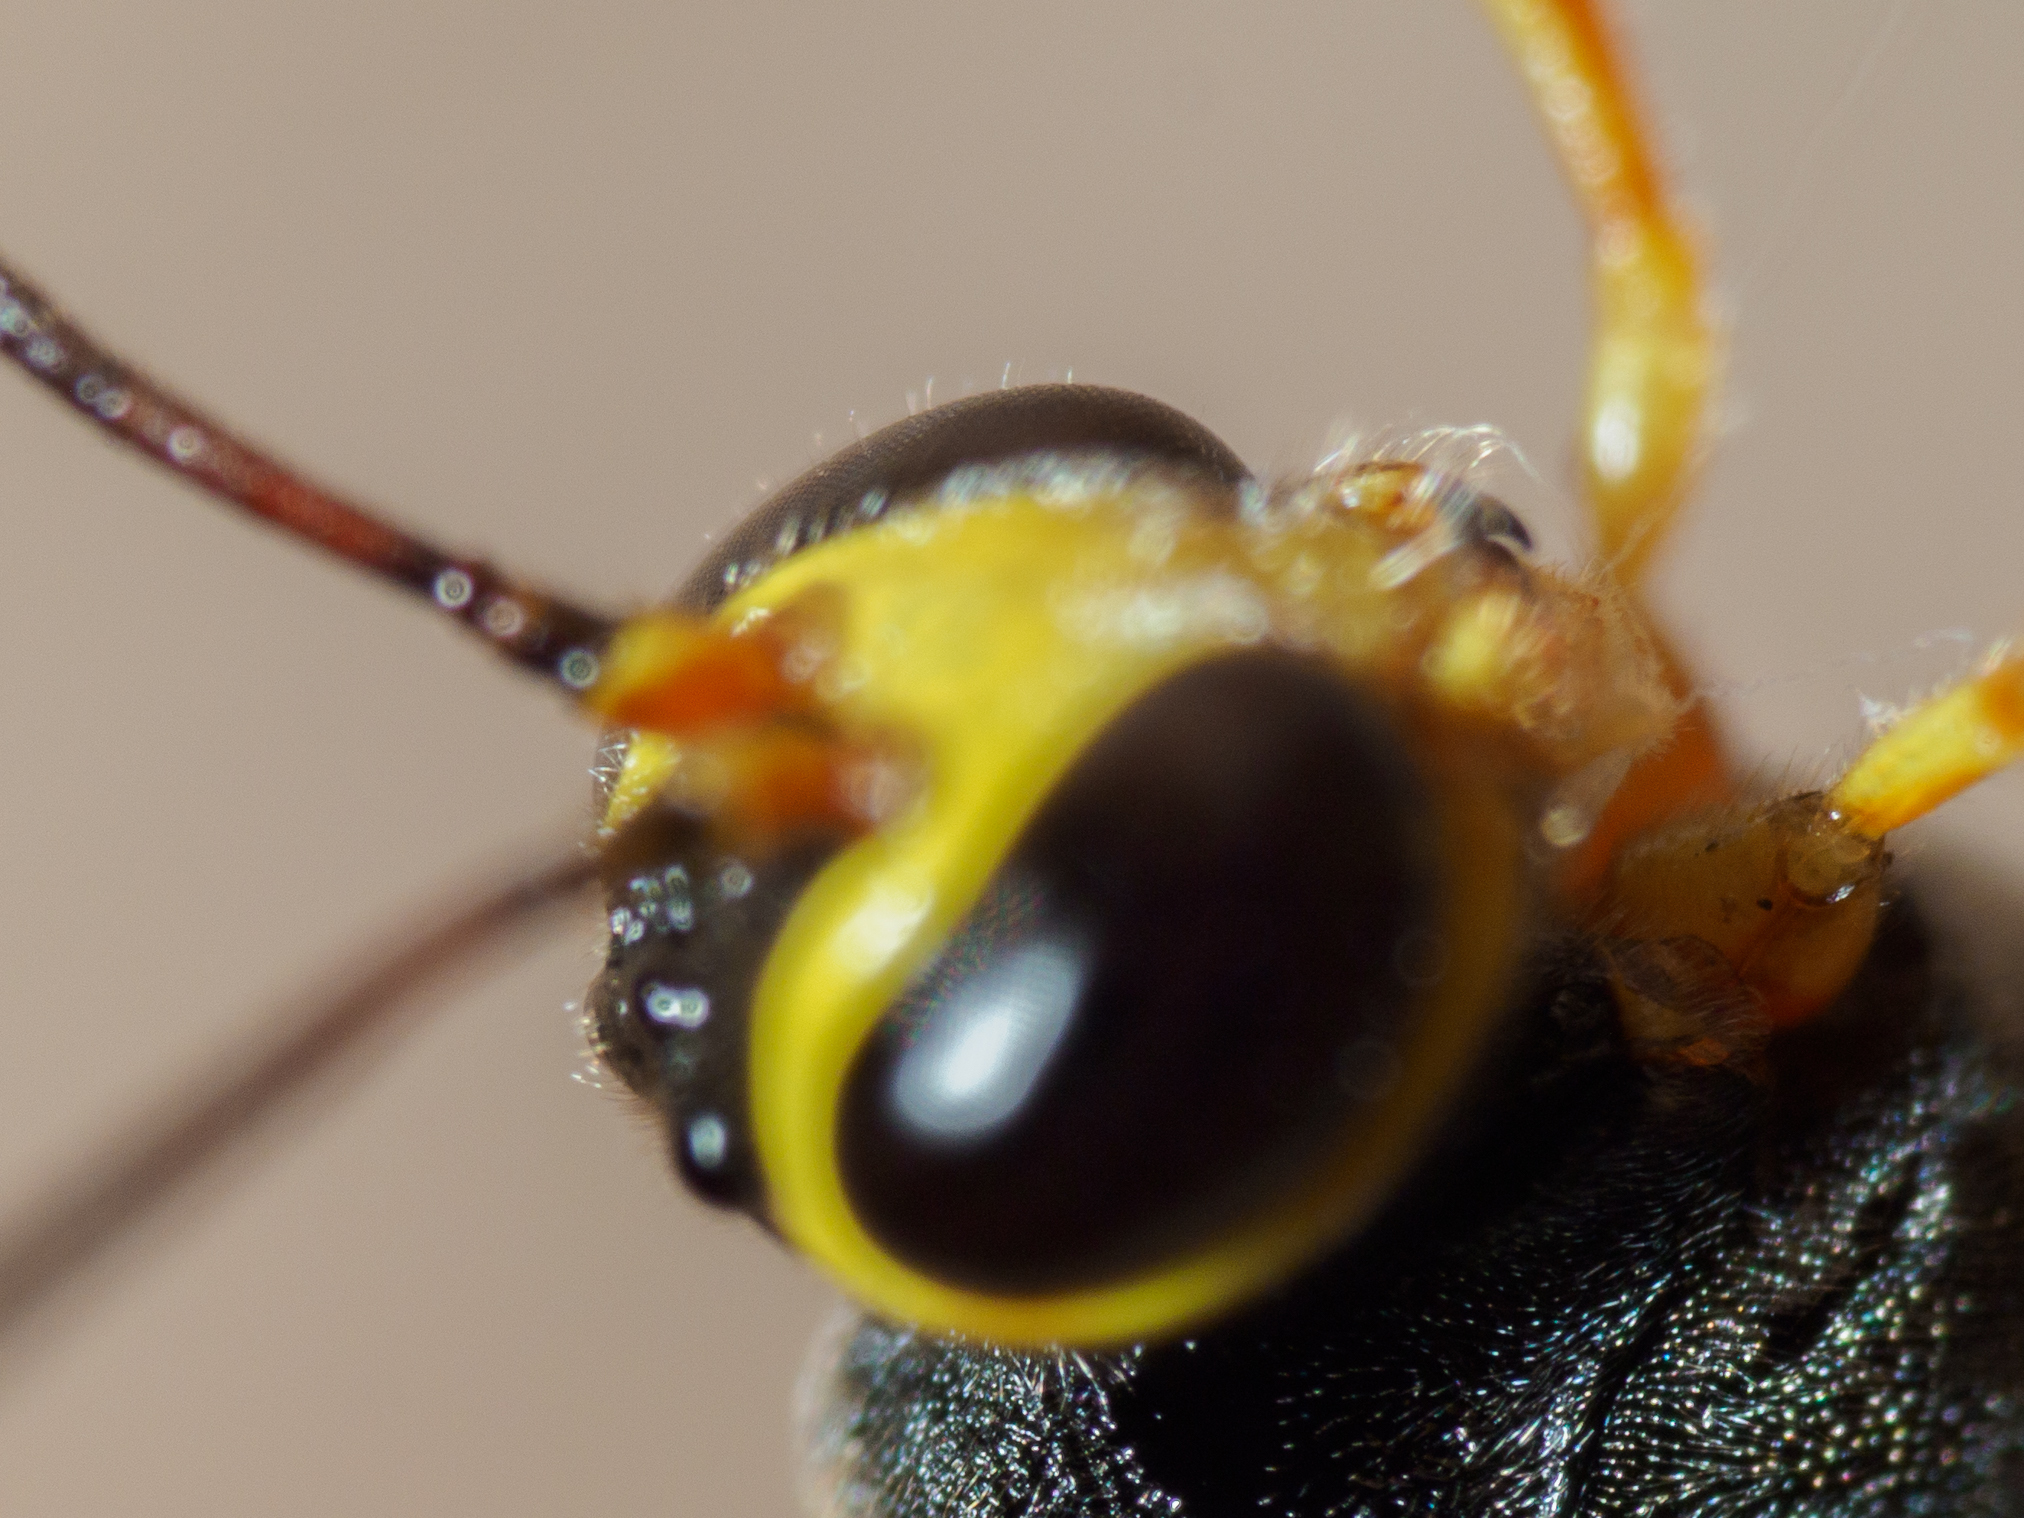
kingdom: Animalia
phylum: Arthropoda
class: Insecta
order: Hymenoptera
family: Ichneumonidae
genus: Trichomma
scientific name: Trichomma biroi
